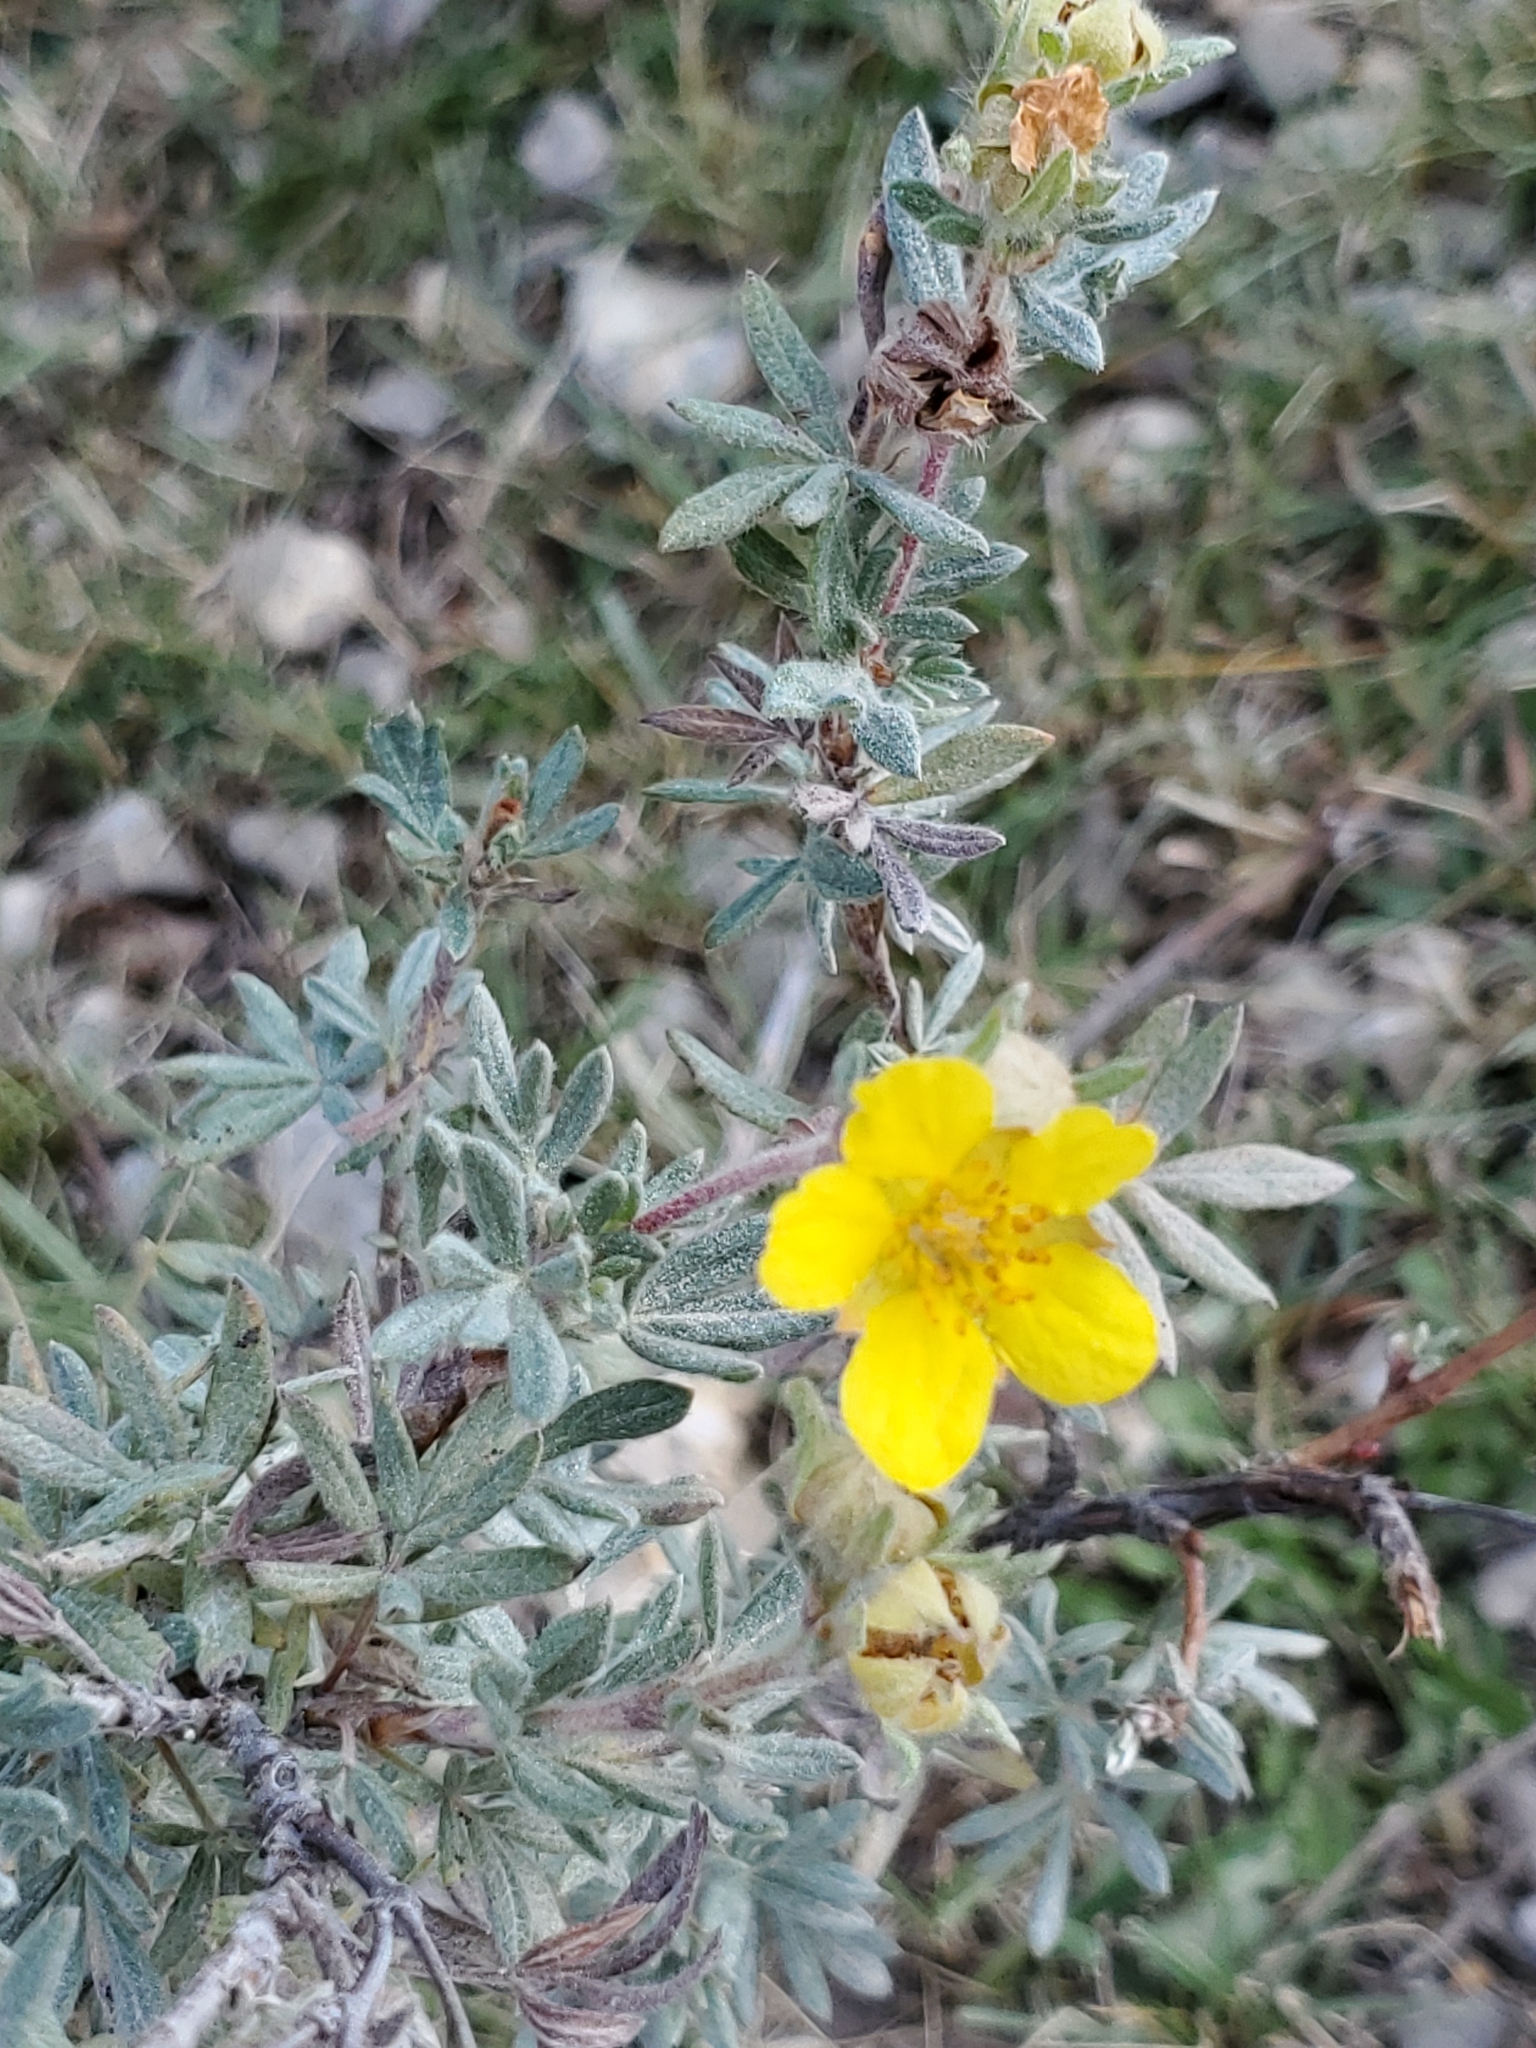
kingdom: Plantae
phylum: Tracheophyta
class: Magnoliopsida
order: Rosales
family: Rosaceae
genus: Dasiphora
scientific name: Dasiphora fruticosa
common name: Shrubby cinquefoil
